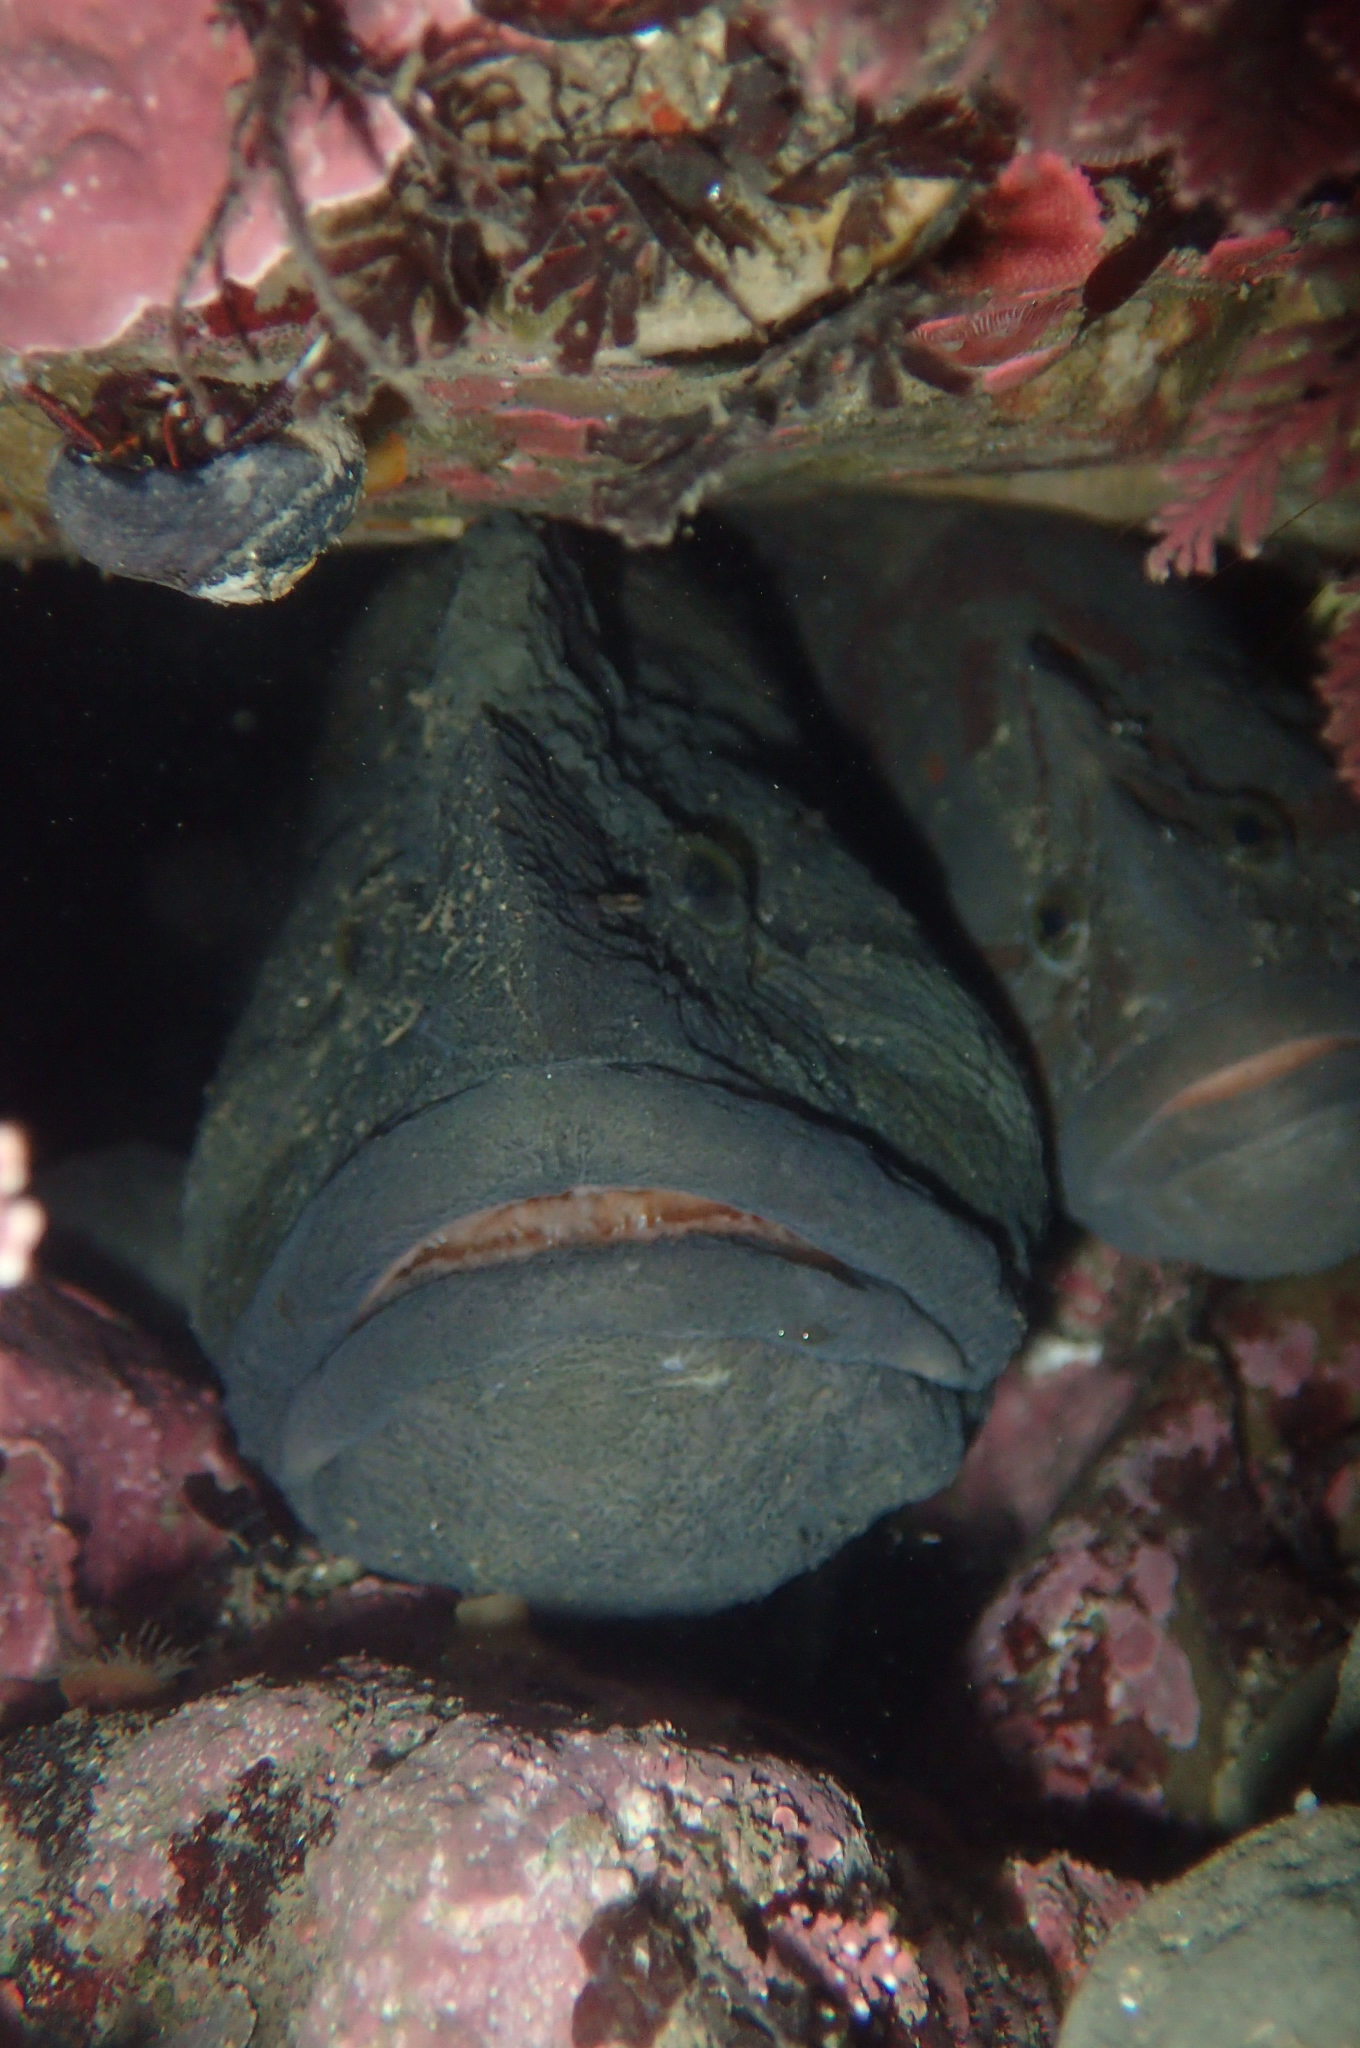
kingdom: Animalia
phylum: Chordata
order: Perciformes
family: Stichaeidae
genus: Cebidichthys
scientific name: Cebidichthys violaceus
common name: Monkeyface prickleback
